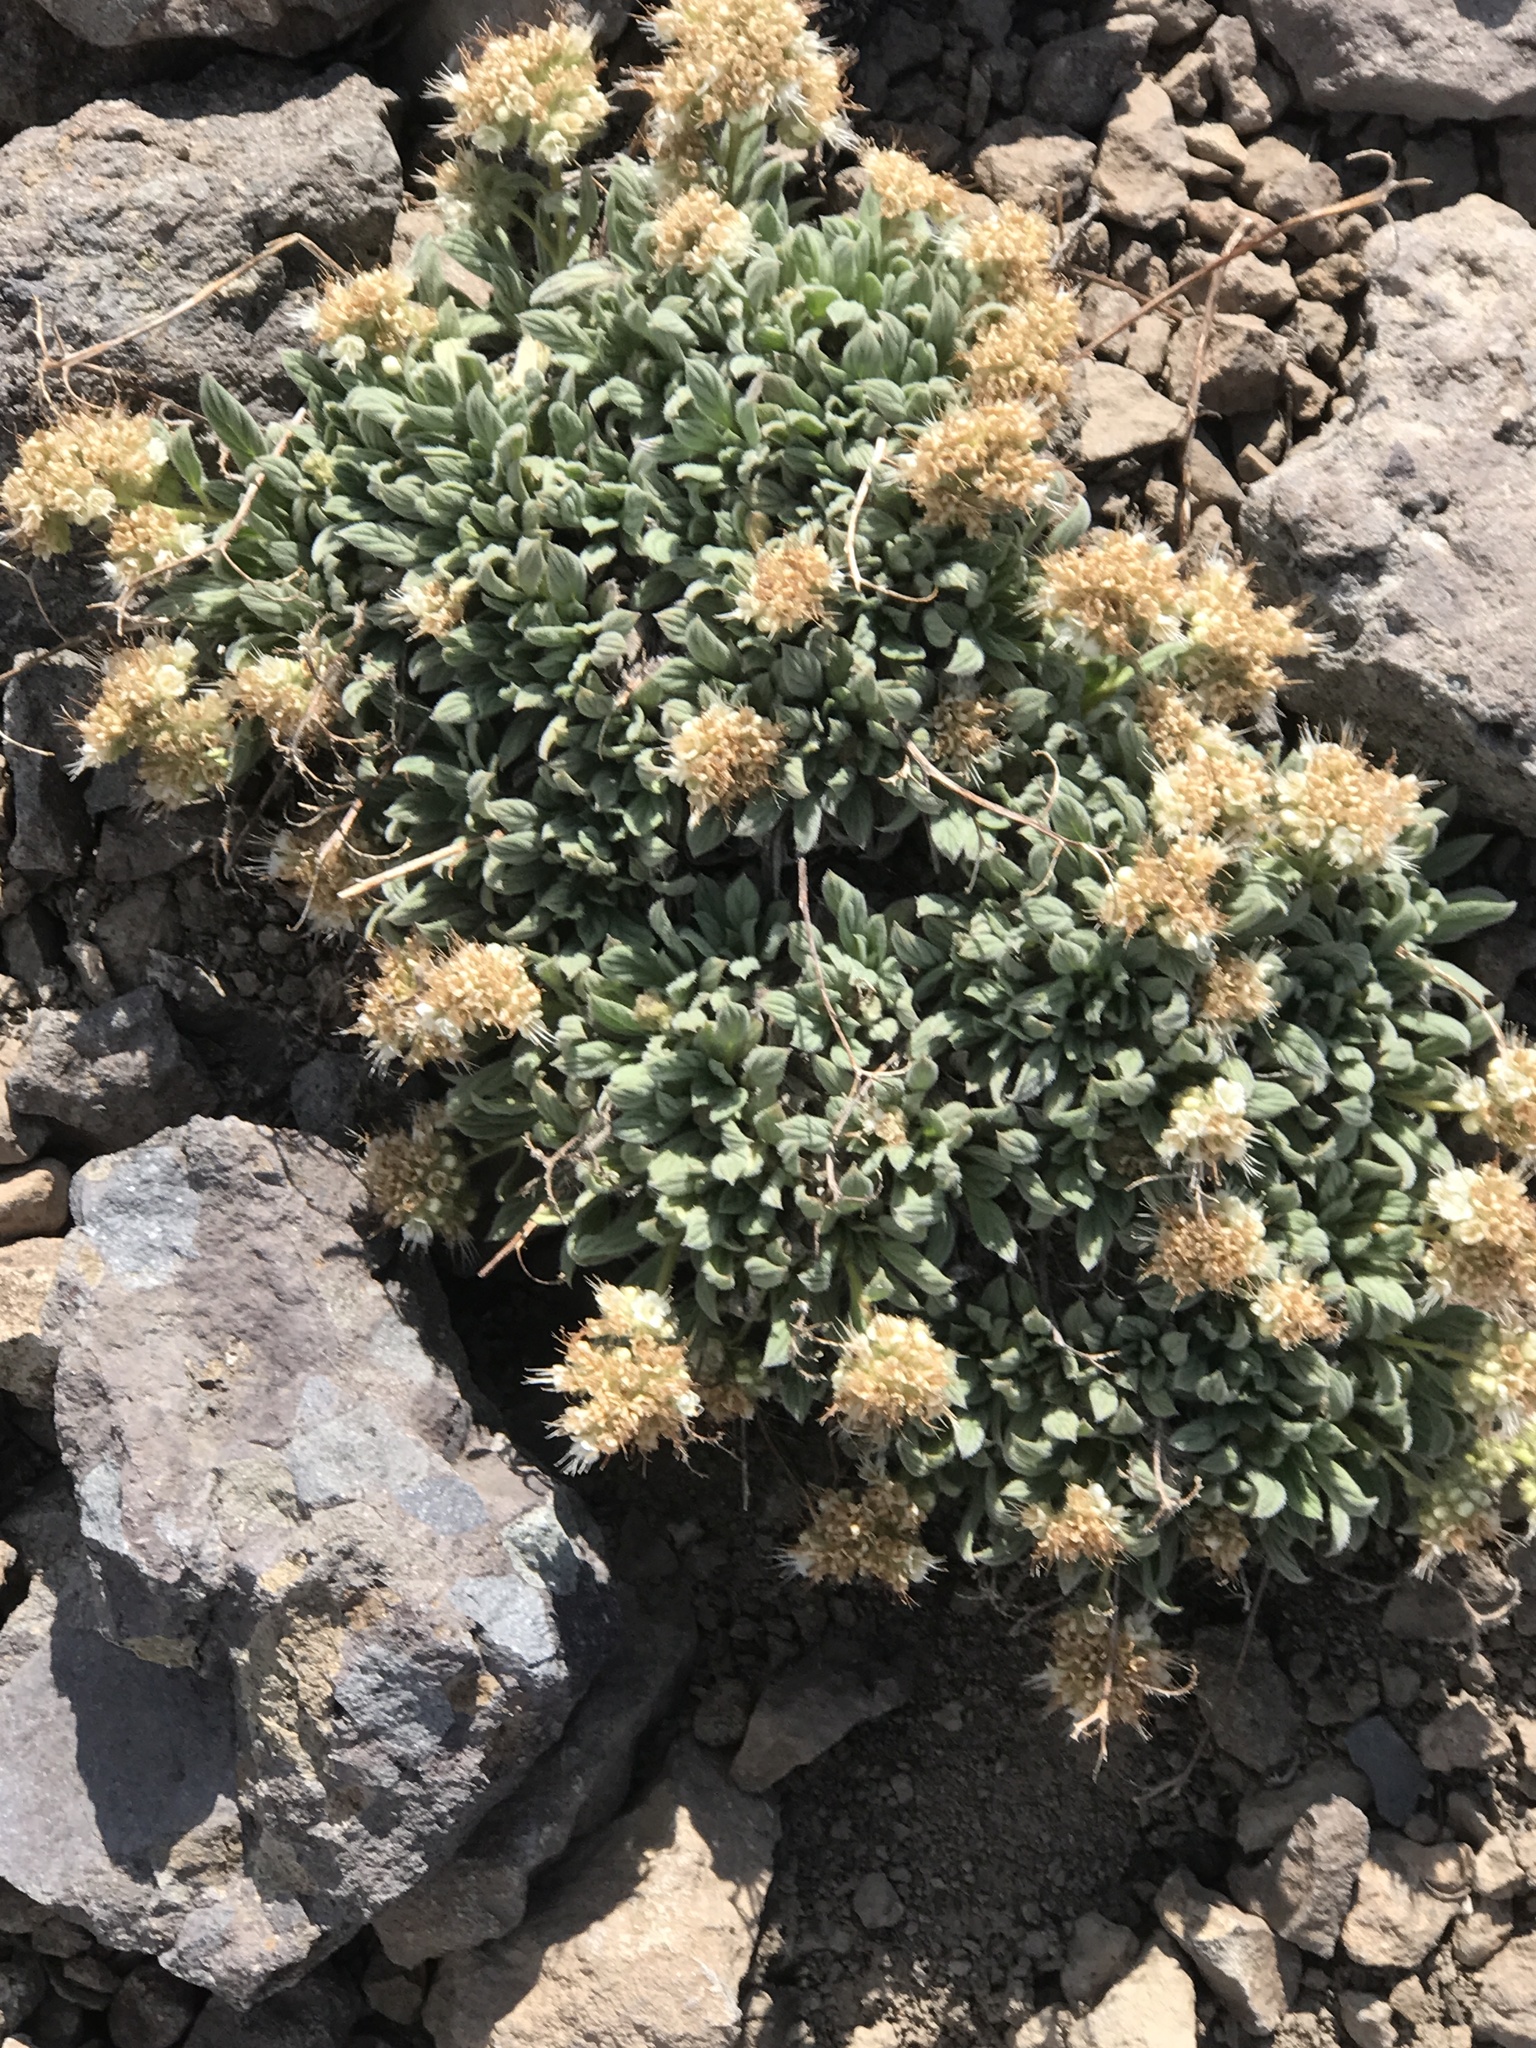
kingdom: Plantae
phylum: Tracheophyta
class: Magnoliopsida
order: Boraginales
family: Hydrophyllaceae
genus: Phacelia
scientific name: Phacelia hastata
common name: Silver-leaved phacelia
